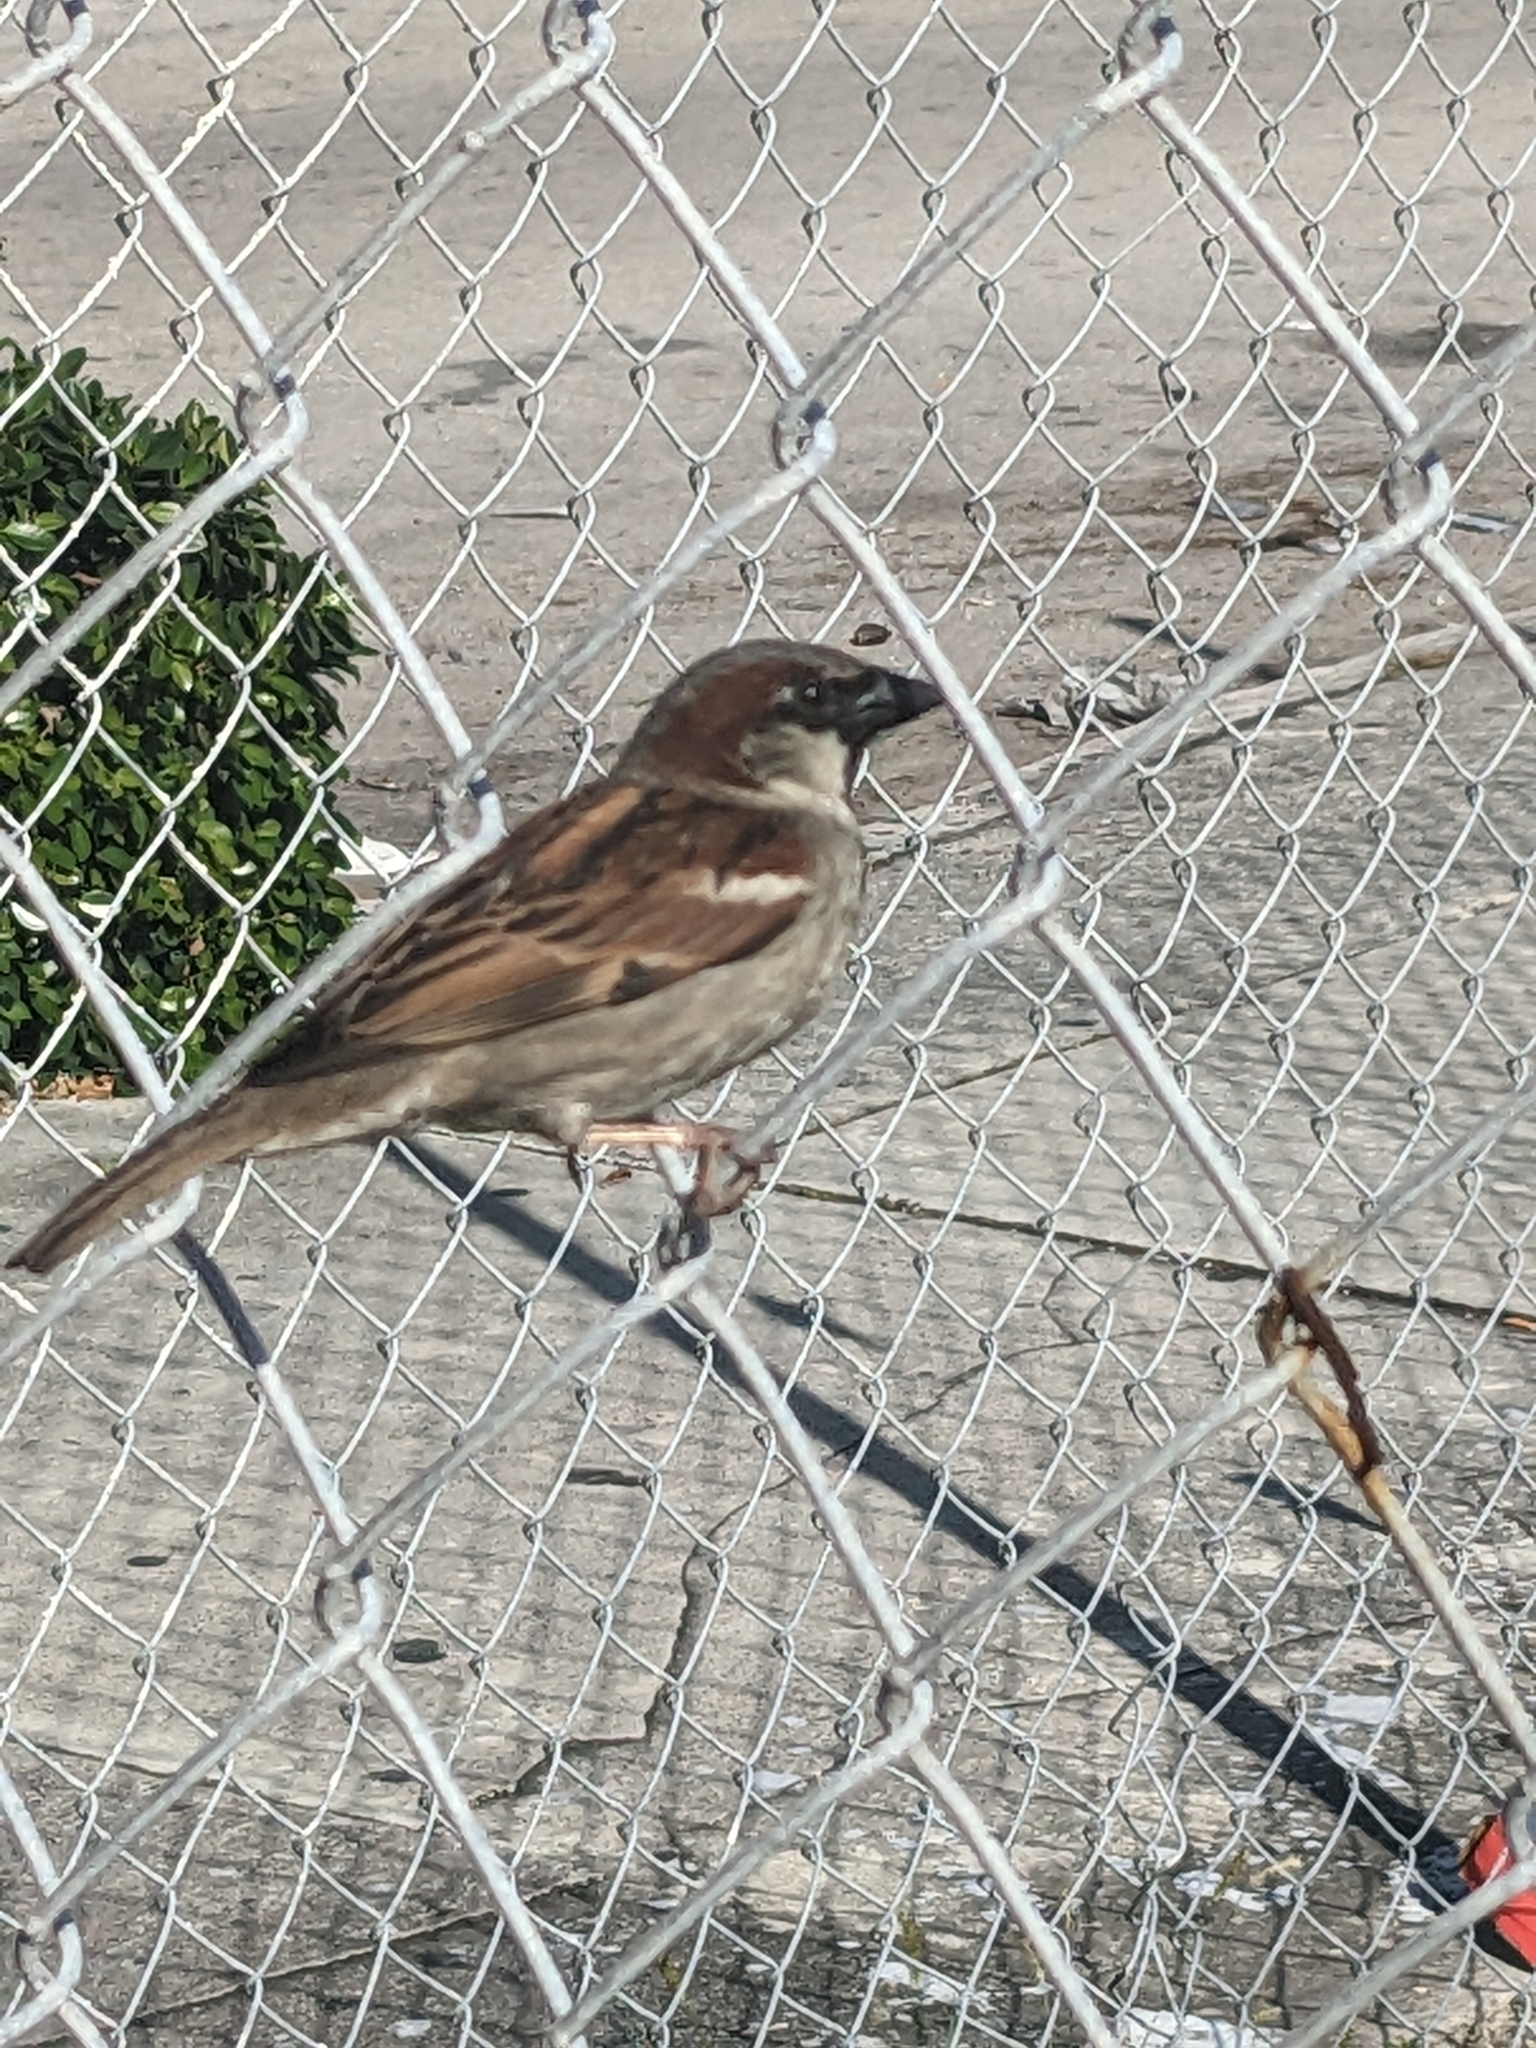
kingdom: Animalia
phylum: Chordata
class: Aves
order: Passeriformes
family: Passeridae
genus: Passer
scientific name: Passer domesticus
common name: House sparrow
